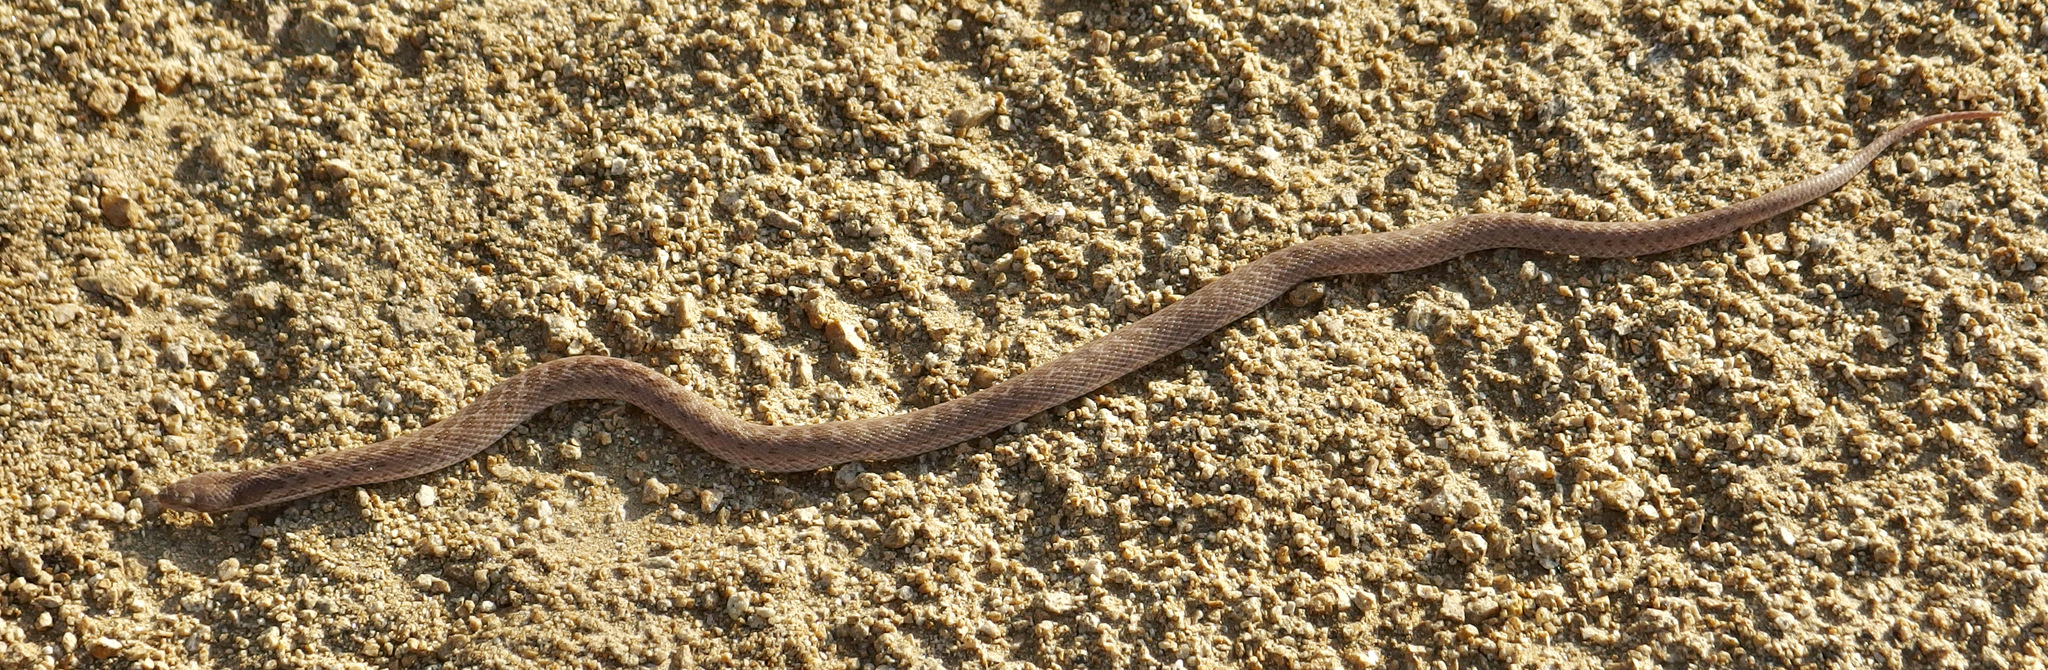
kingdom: Animalia
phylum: Chordata
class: Squamata
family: Colubridae
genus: Hypsiglena
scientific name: Hypsiglena chlorophaea
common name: Desert nightsnake
